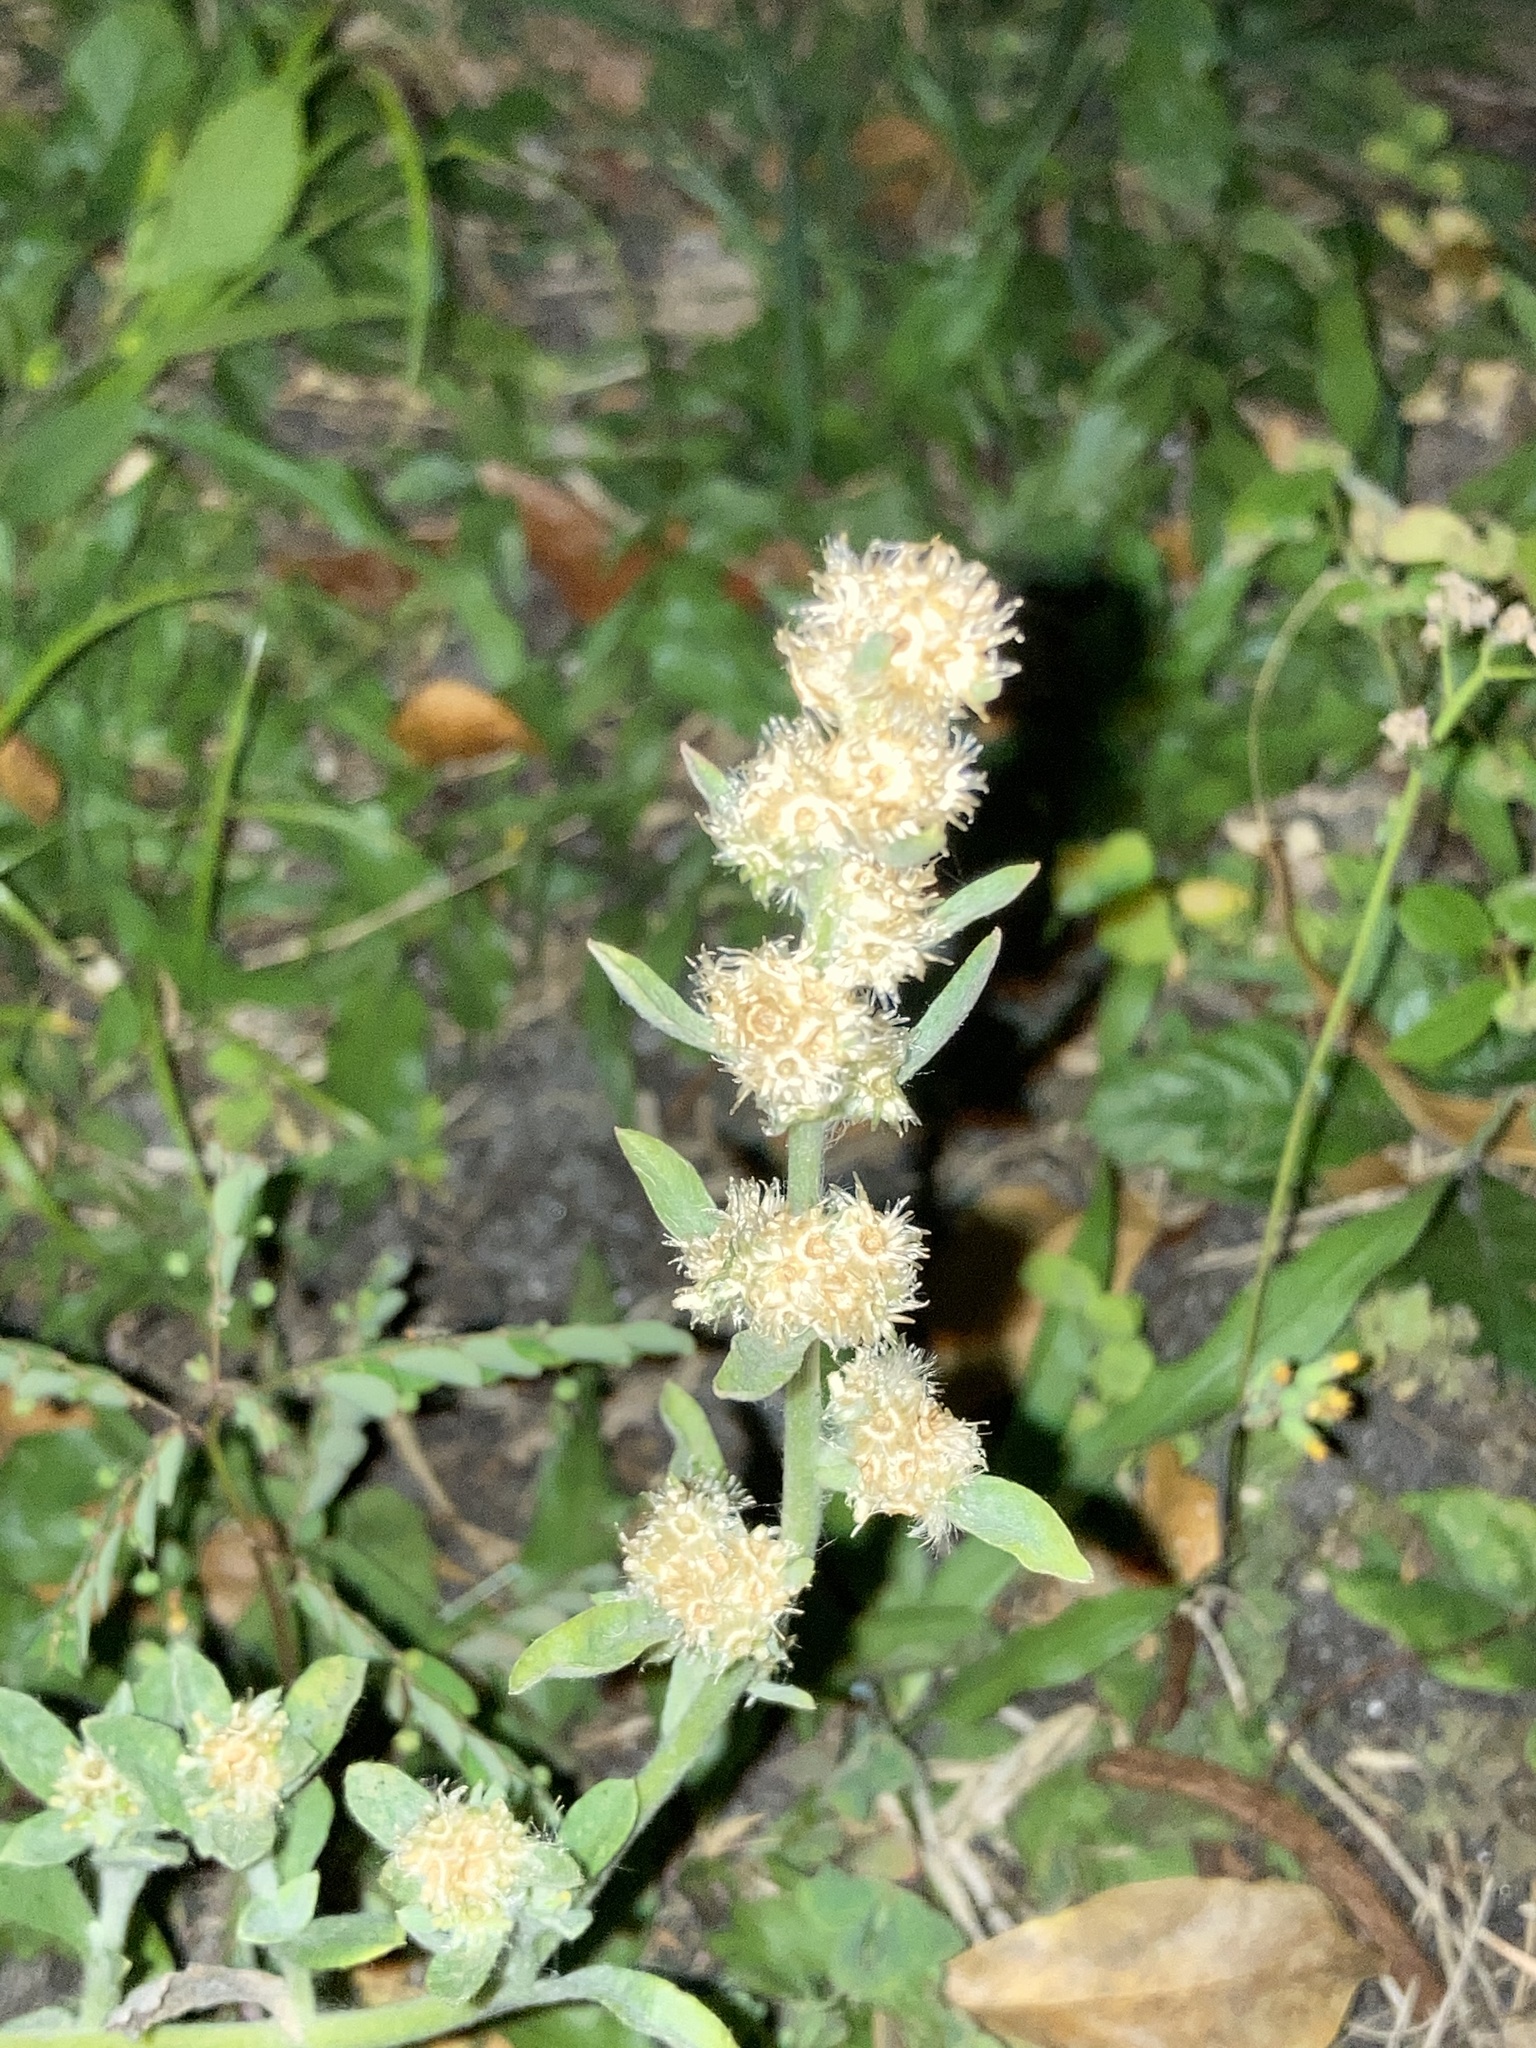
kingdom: Plantae
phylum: Tracheophyta
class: Magnoliopsida
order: Asterales
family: Asteraceae
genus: Gamochaeta
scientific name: Gamochaeta pensylvanica
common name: Pennsylvania everlasting
